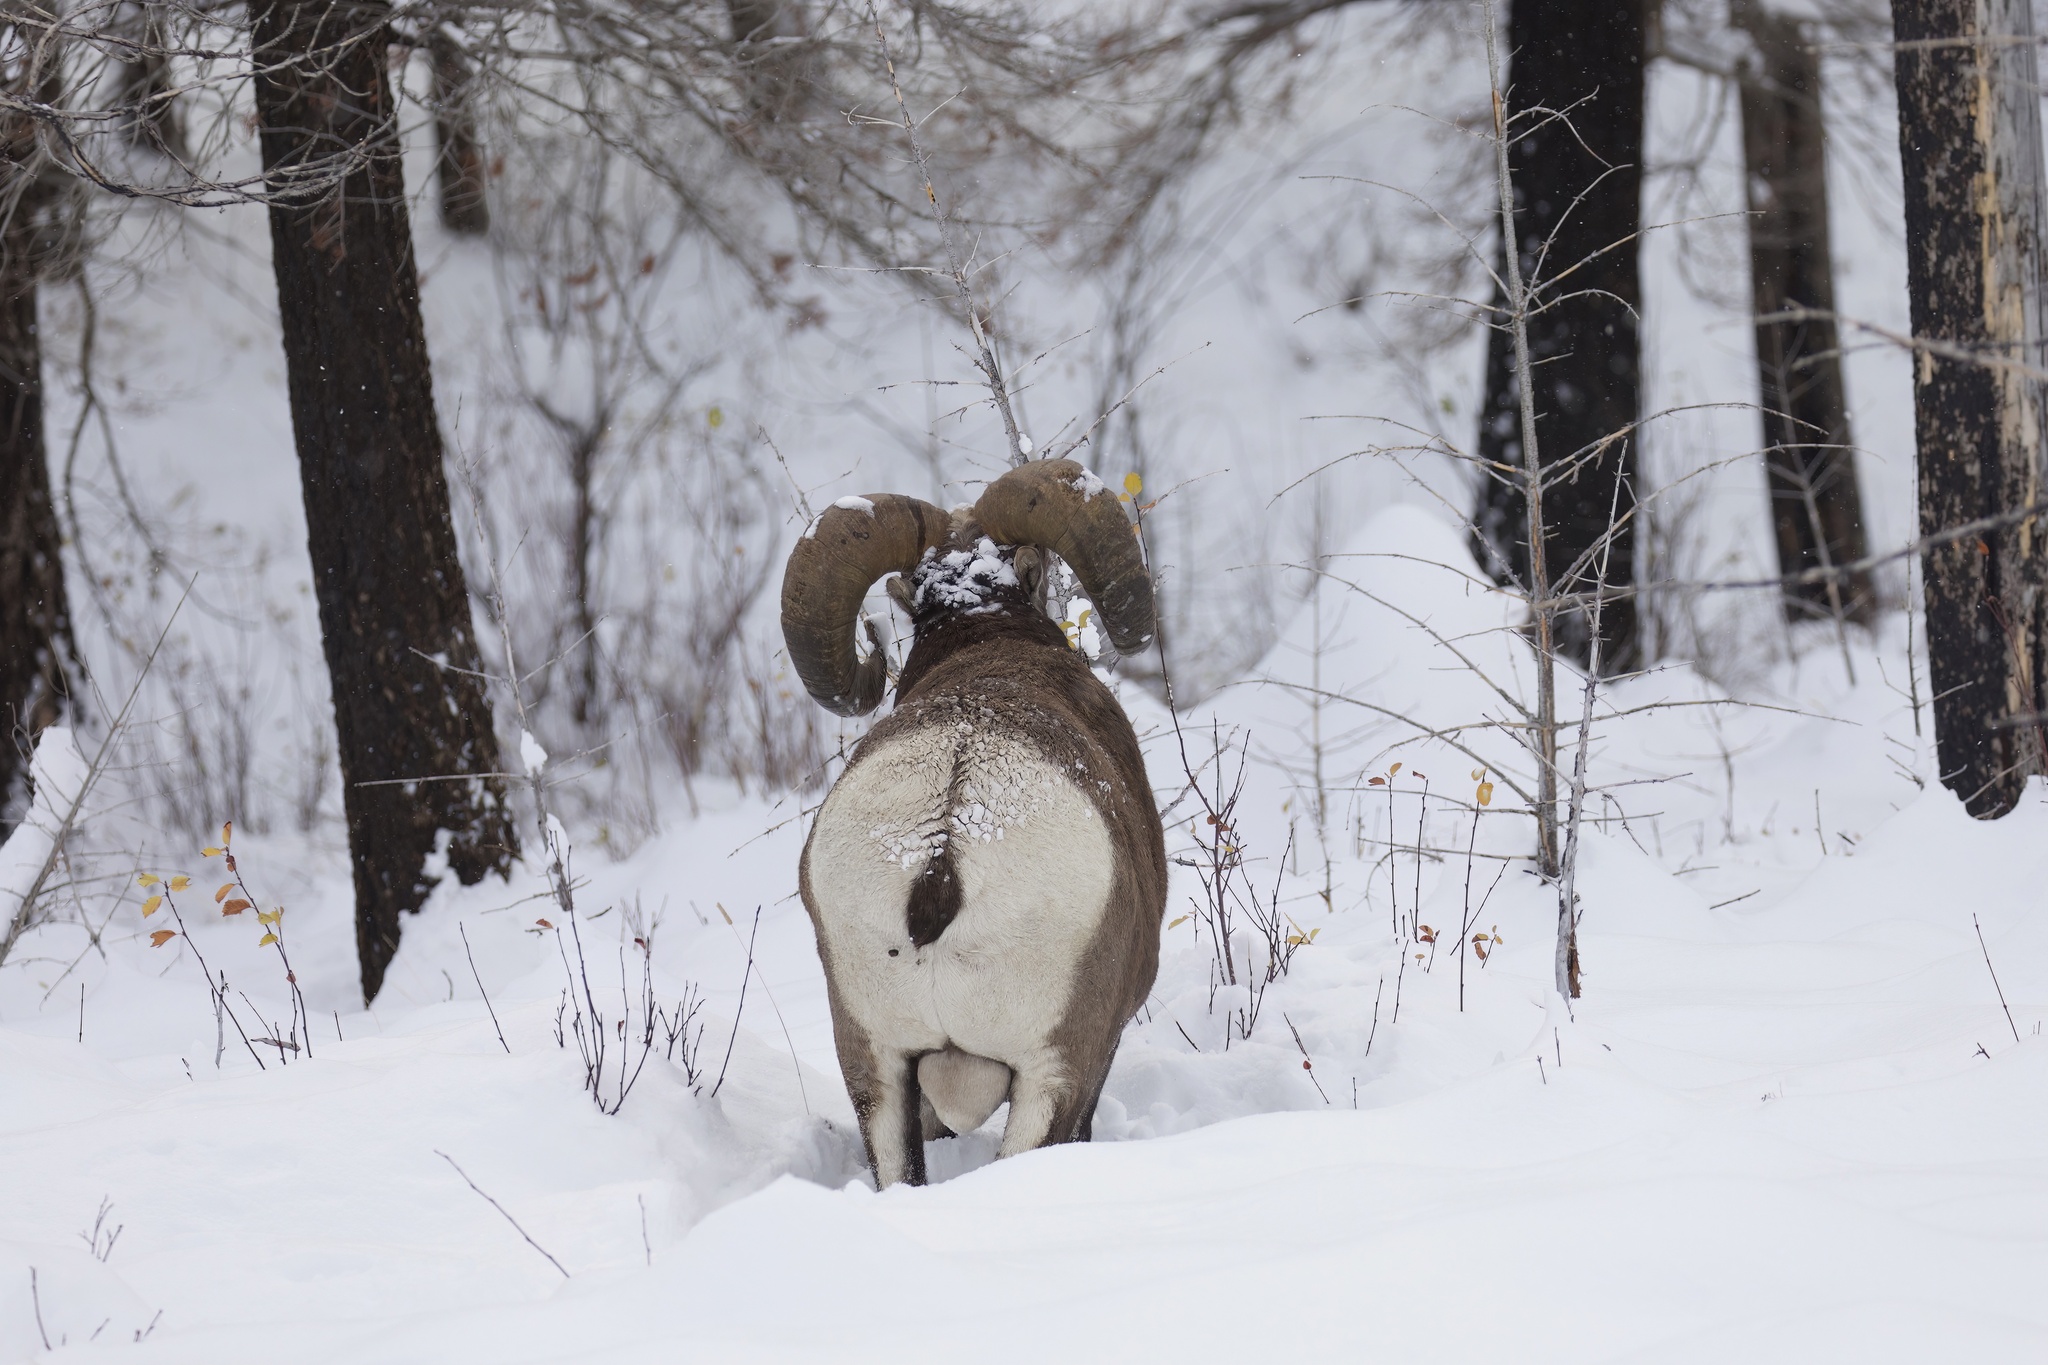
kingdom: Animalia
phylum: Chordata
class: Mammalia
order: Artiodactyla
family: Bovidae
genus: Ovis
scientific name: Ovis canadensis
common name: Bighorn sheep
